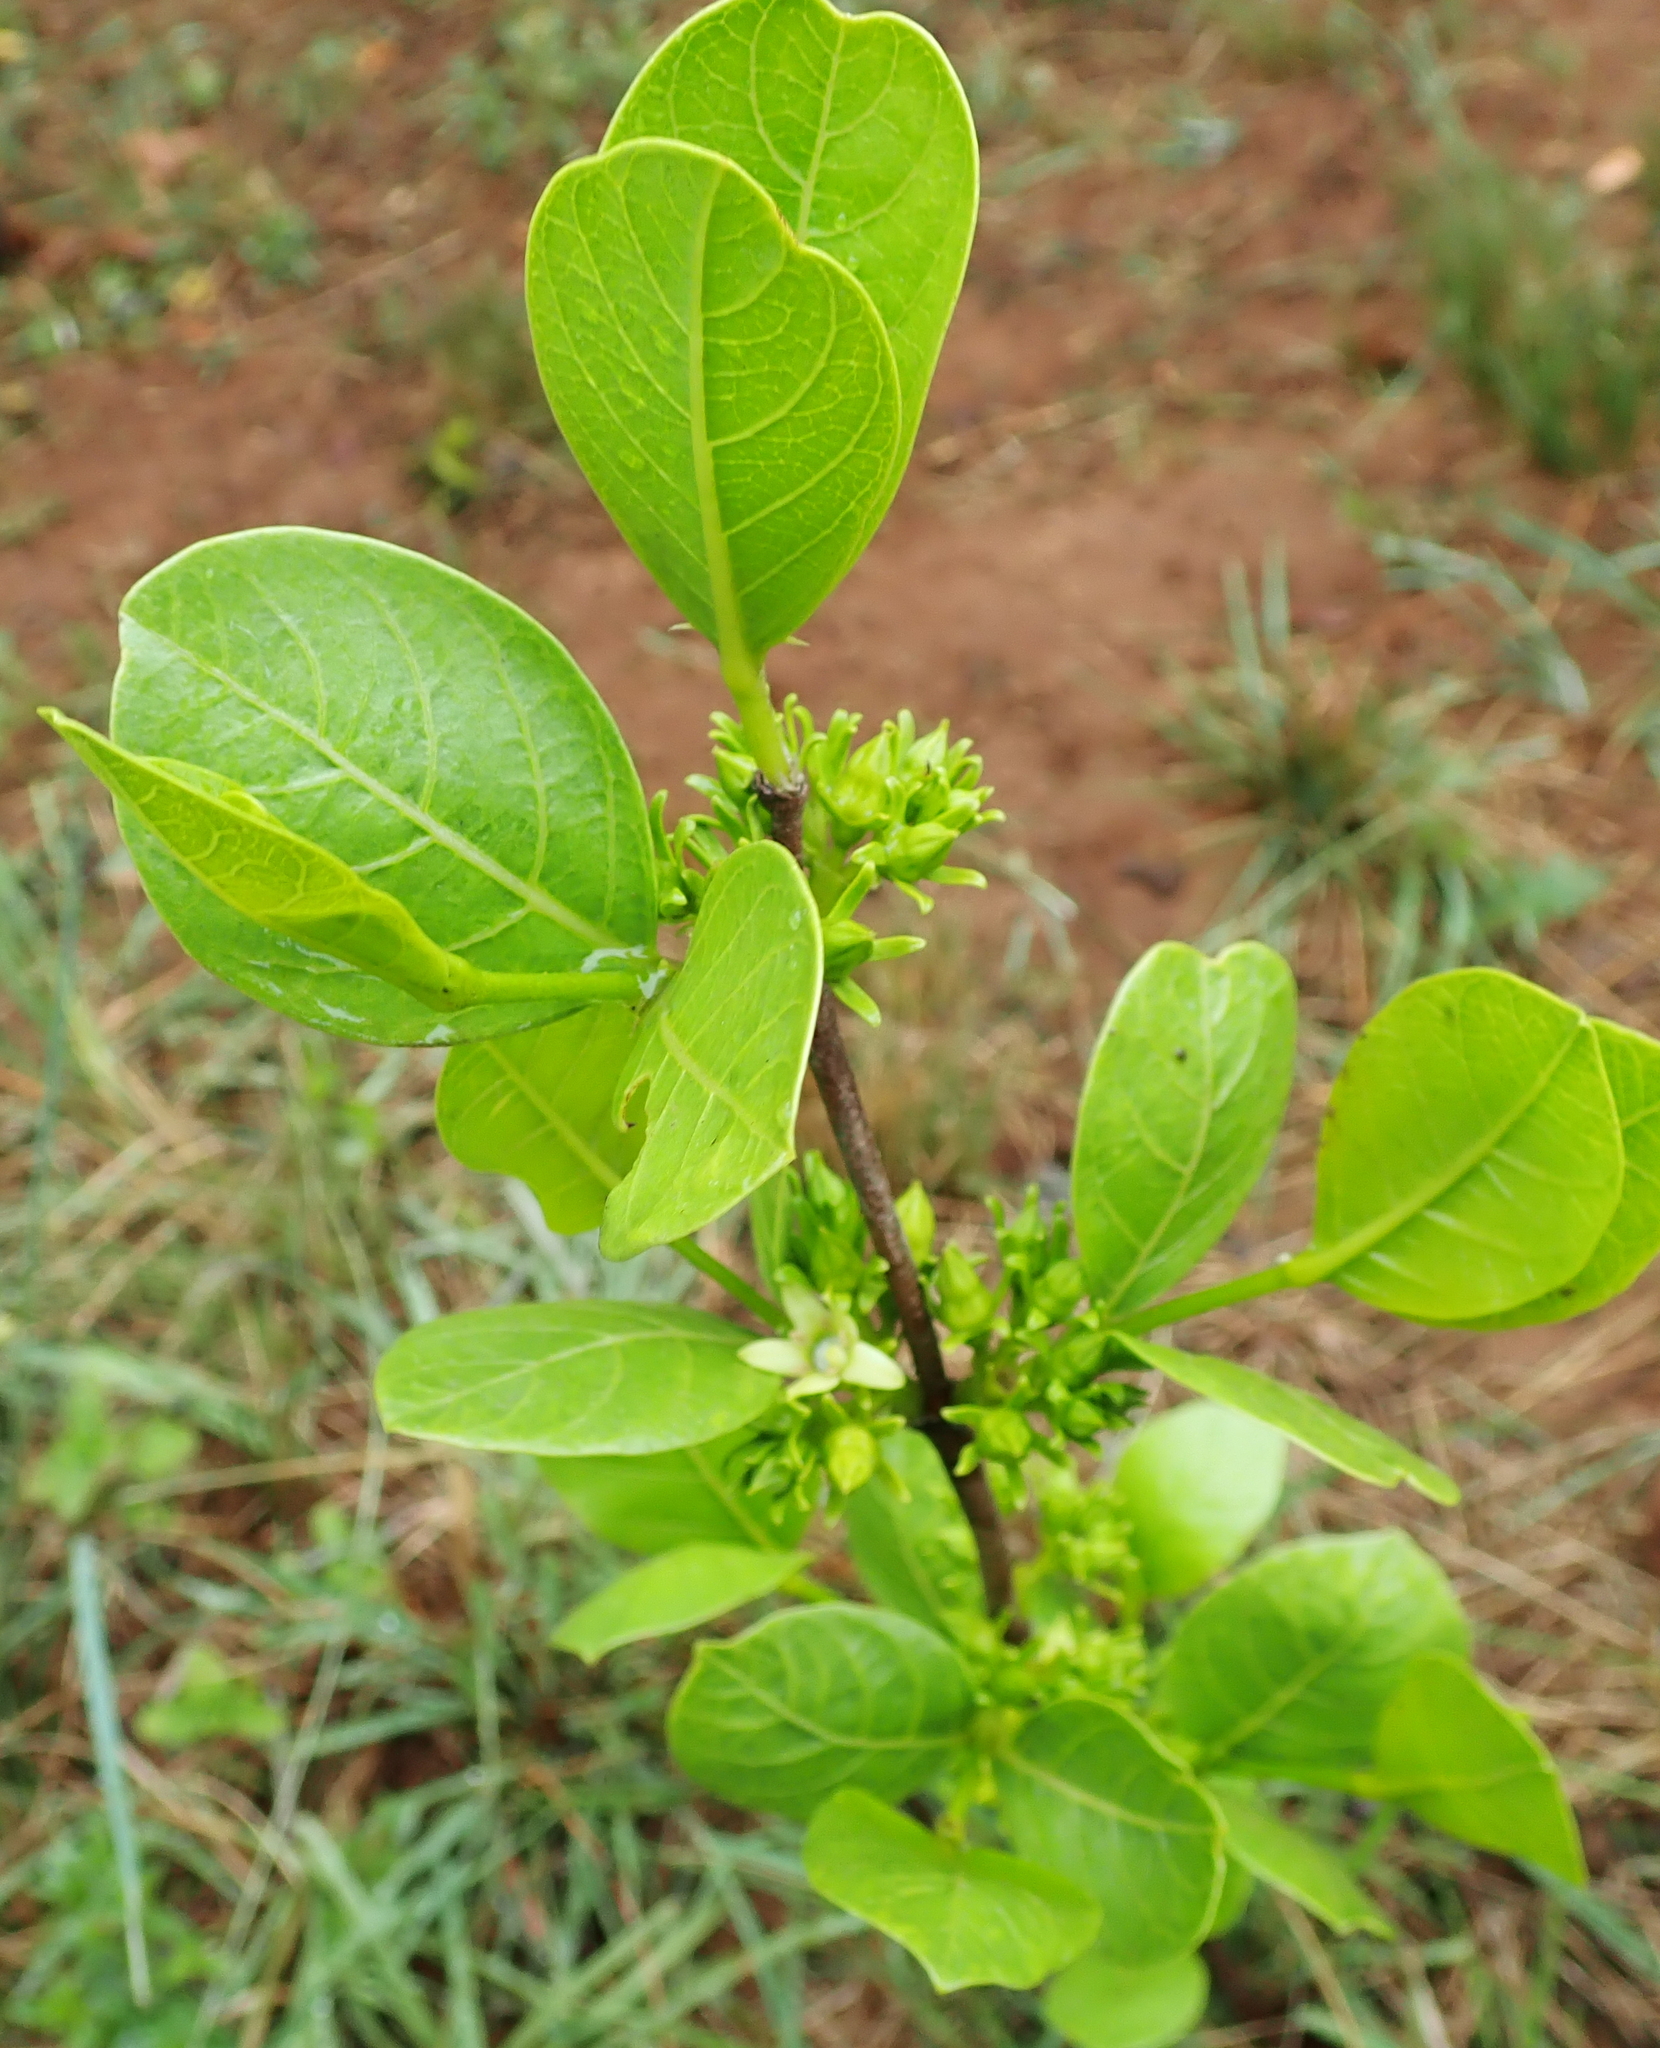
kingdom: Plantae
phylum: Tracheophyta
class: Magnoliopsida
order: Gentianales
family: Rubiaceae
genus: Vangueria
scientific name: Vangueria venosa
